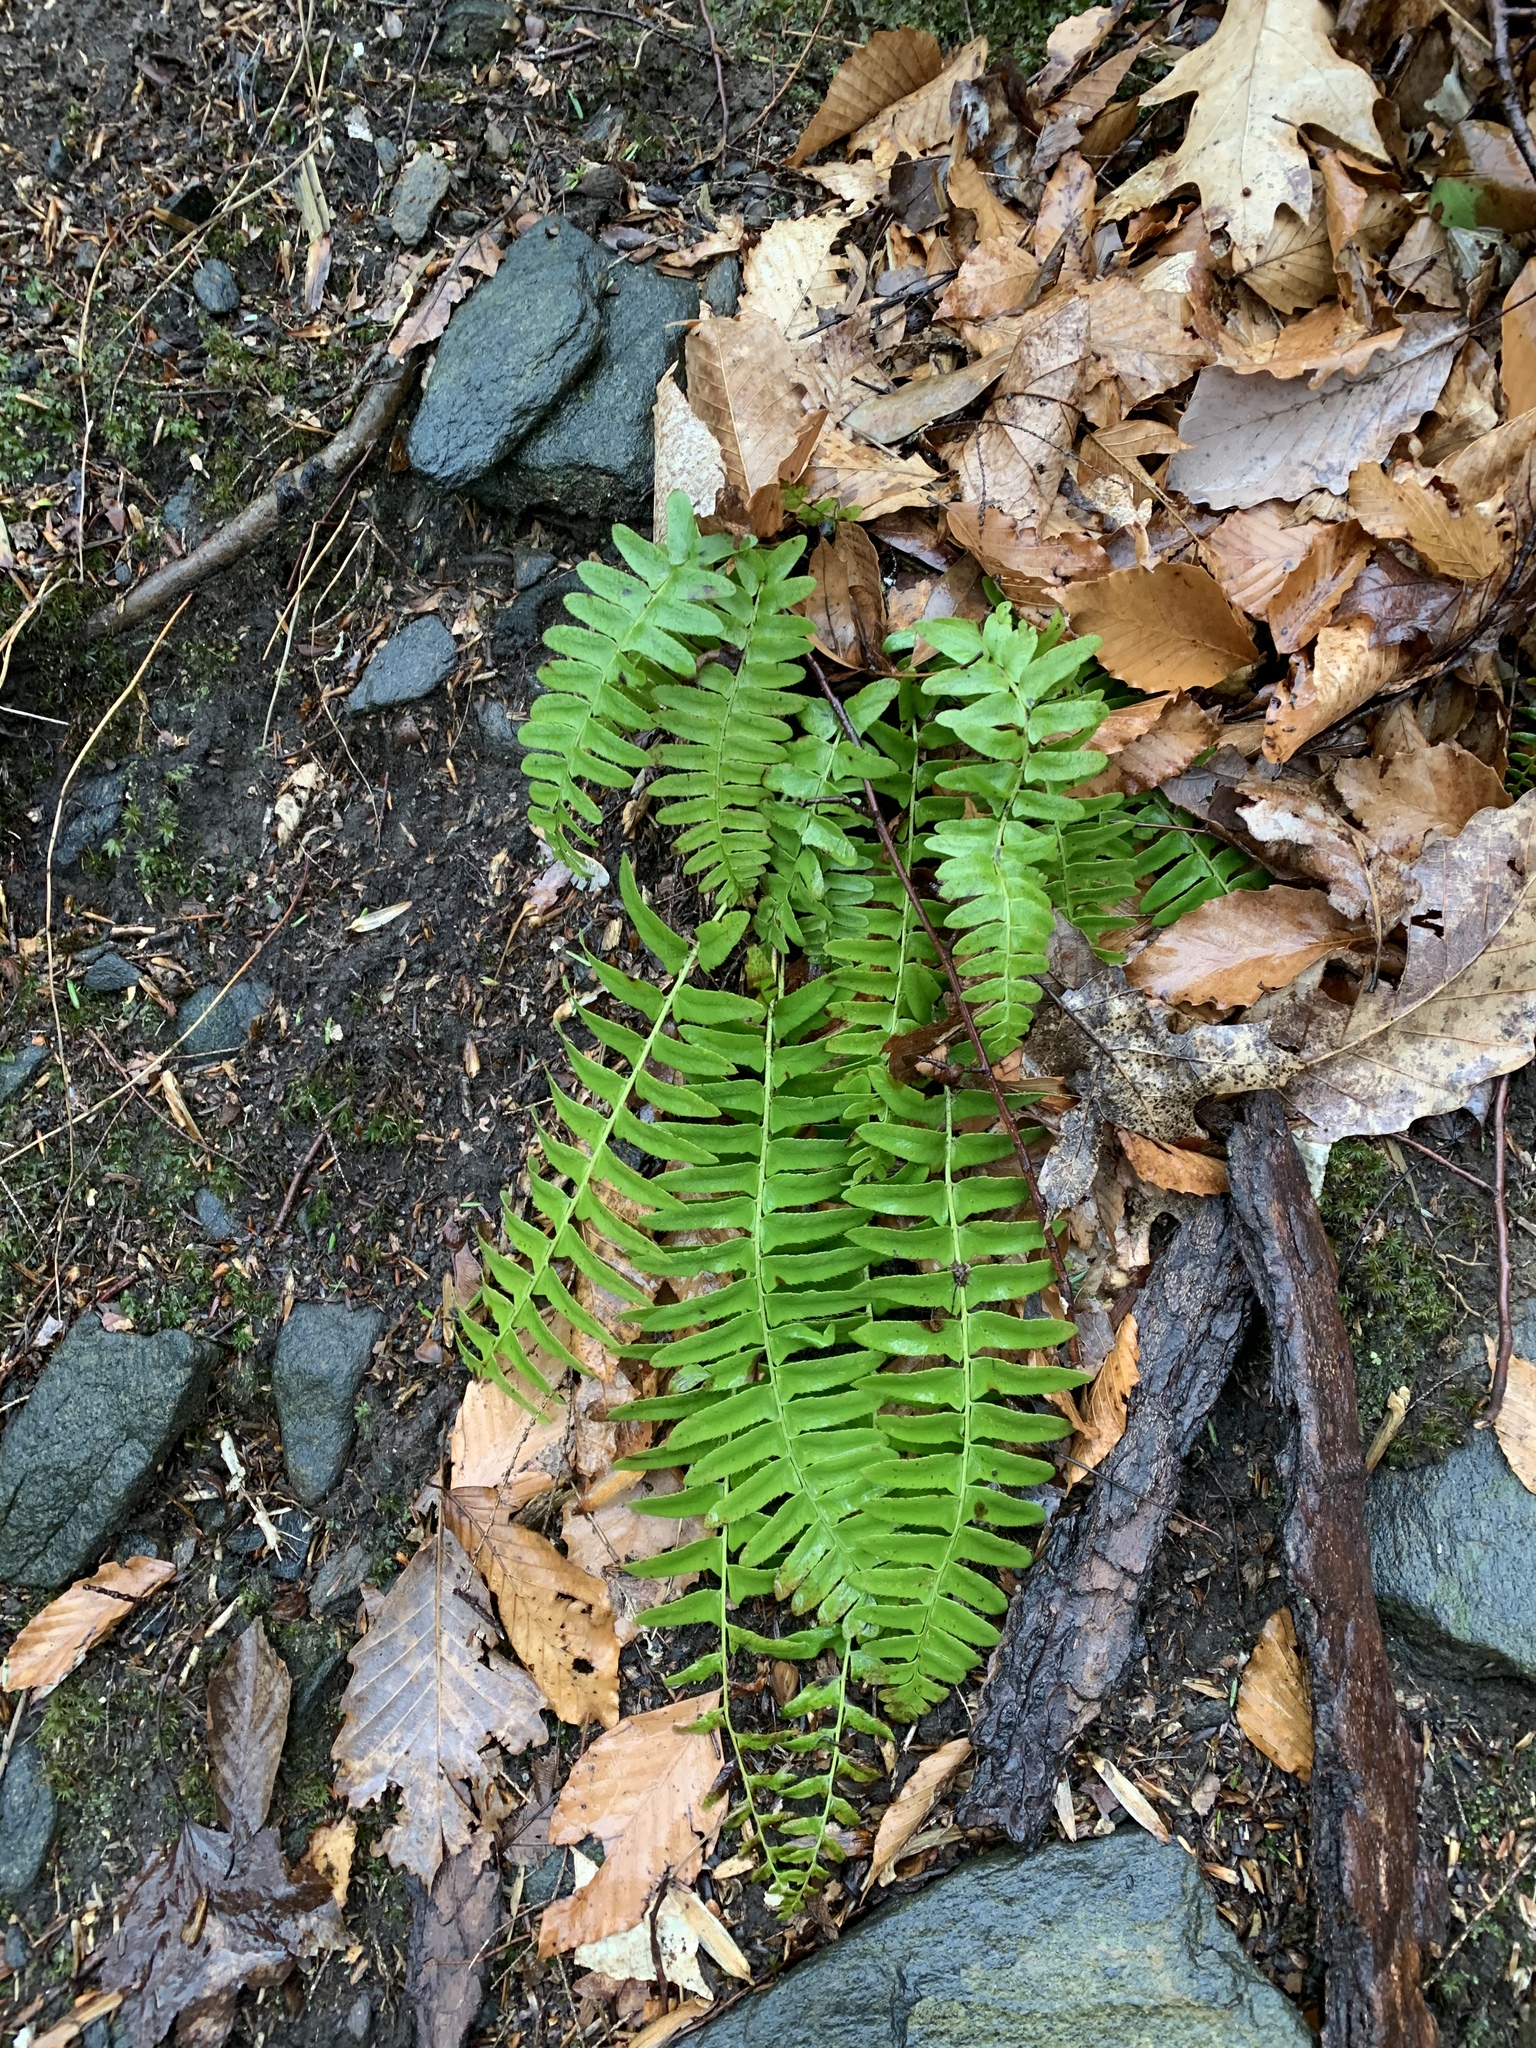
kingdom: Plantae
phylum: Tracheophyta
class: Polypodiopsida
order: Polypodiales
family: Dryopteridaceae
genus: Polystichum
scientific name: Polystichum acrostichoides
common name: Christmas fern
